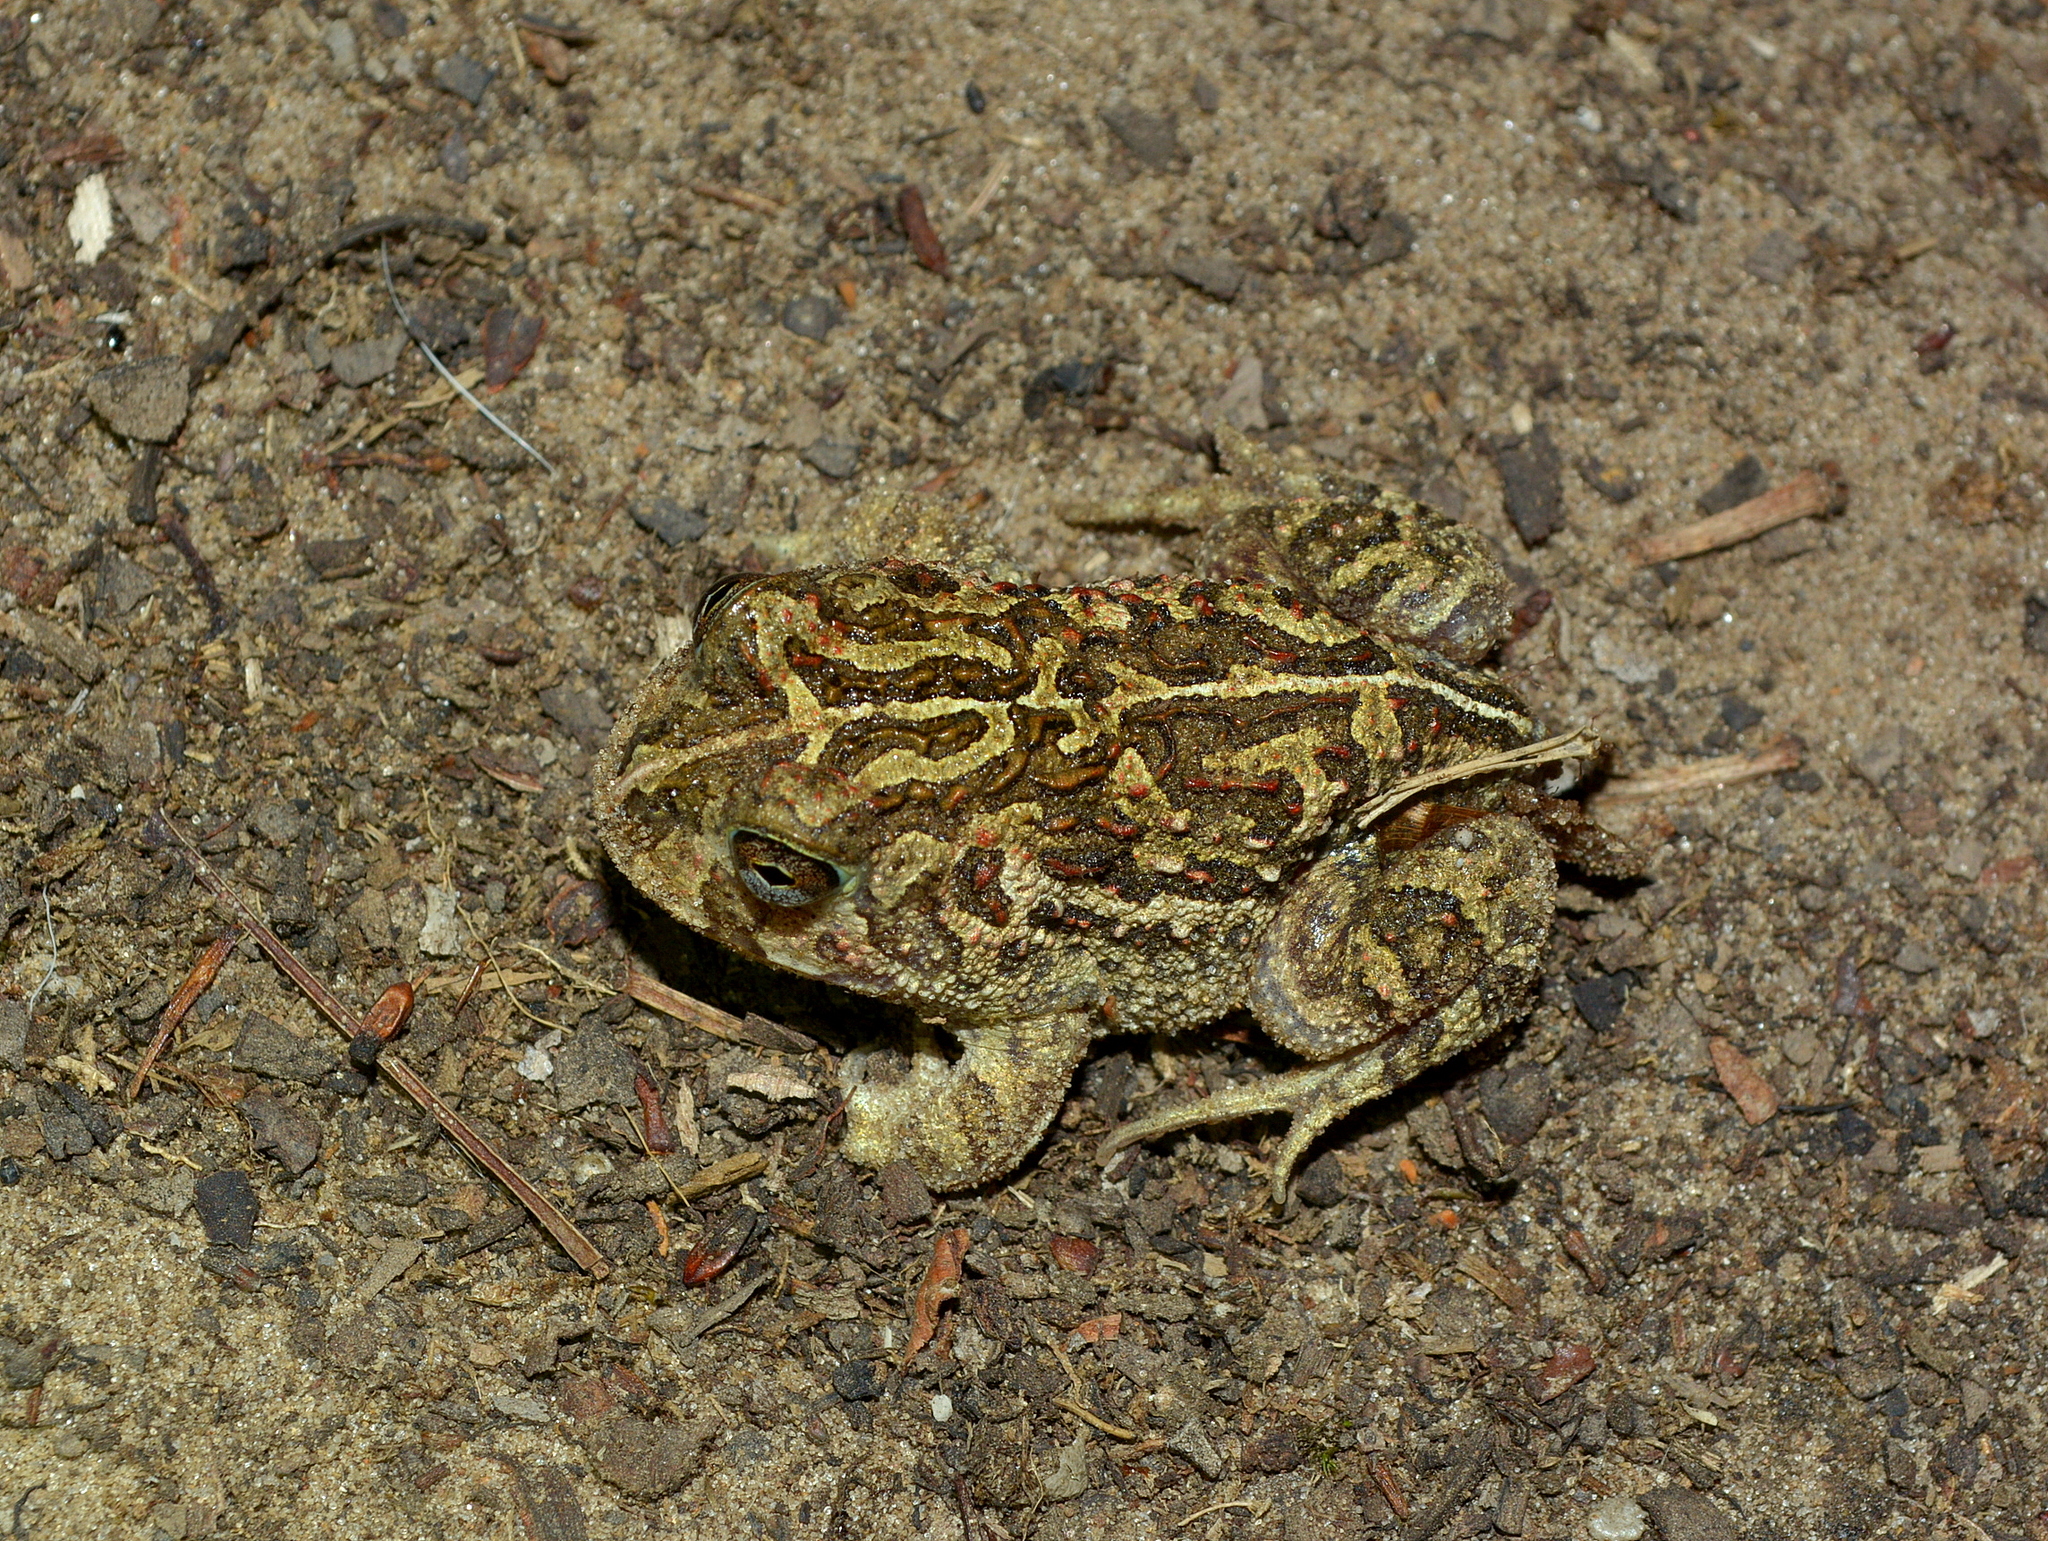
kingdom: Animalia
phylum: Chordata
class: Amphibia
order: Anura
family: Odontophrynidae
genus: Odontophrynus
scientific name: Odontophrynus
